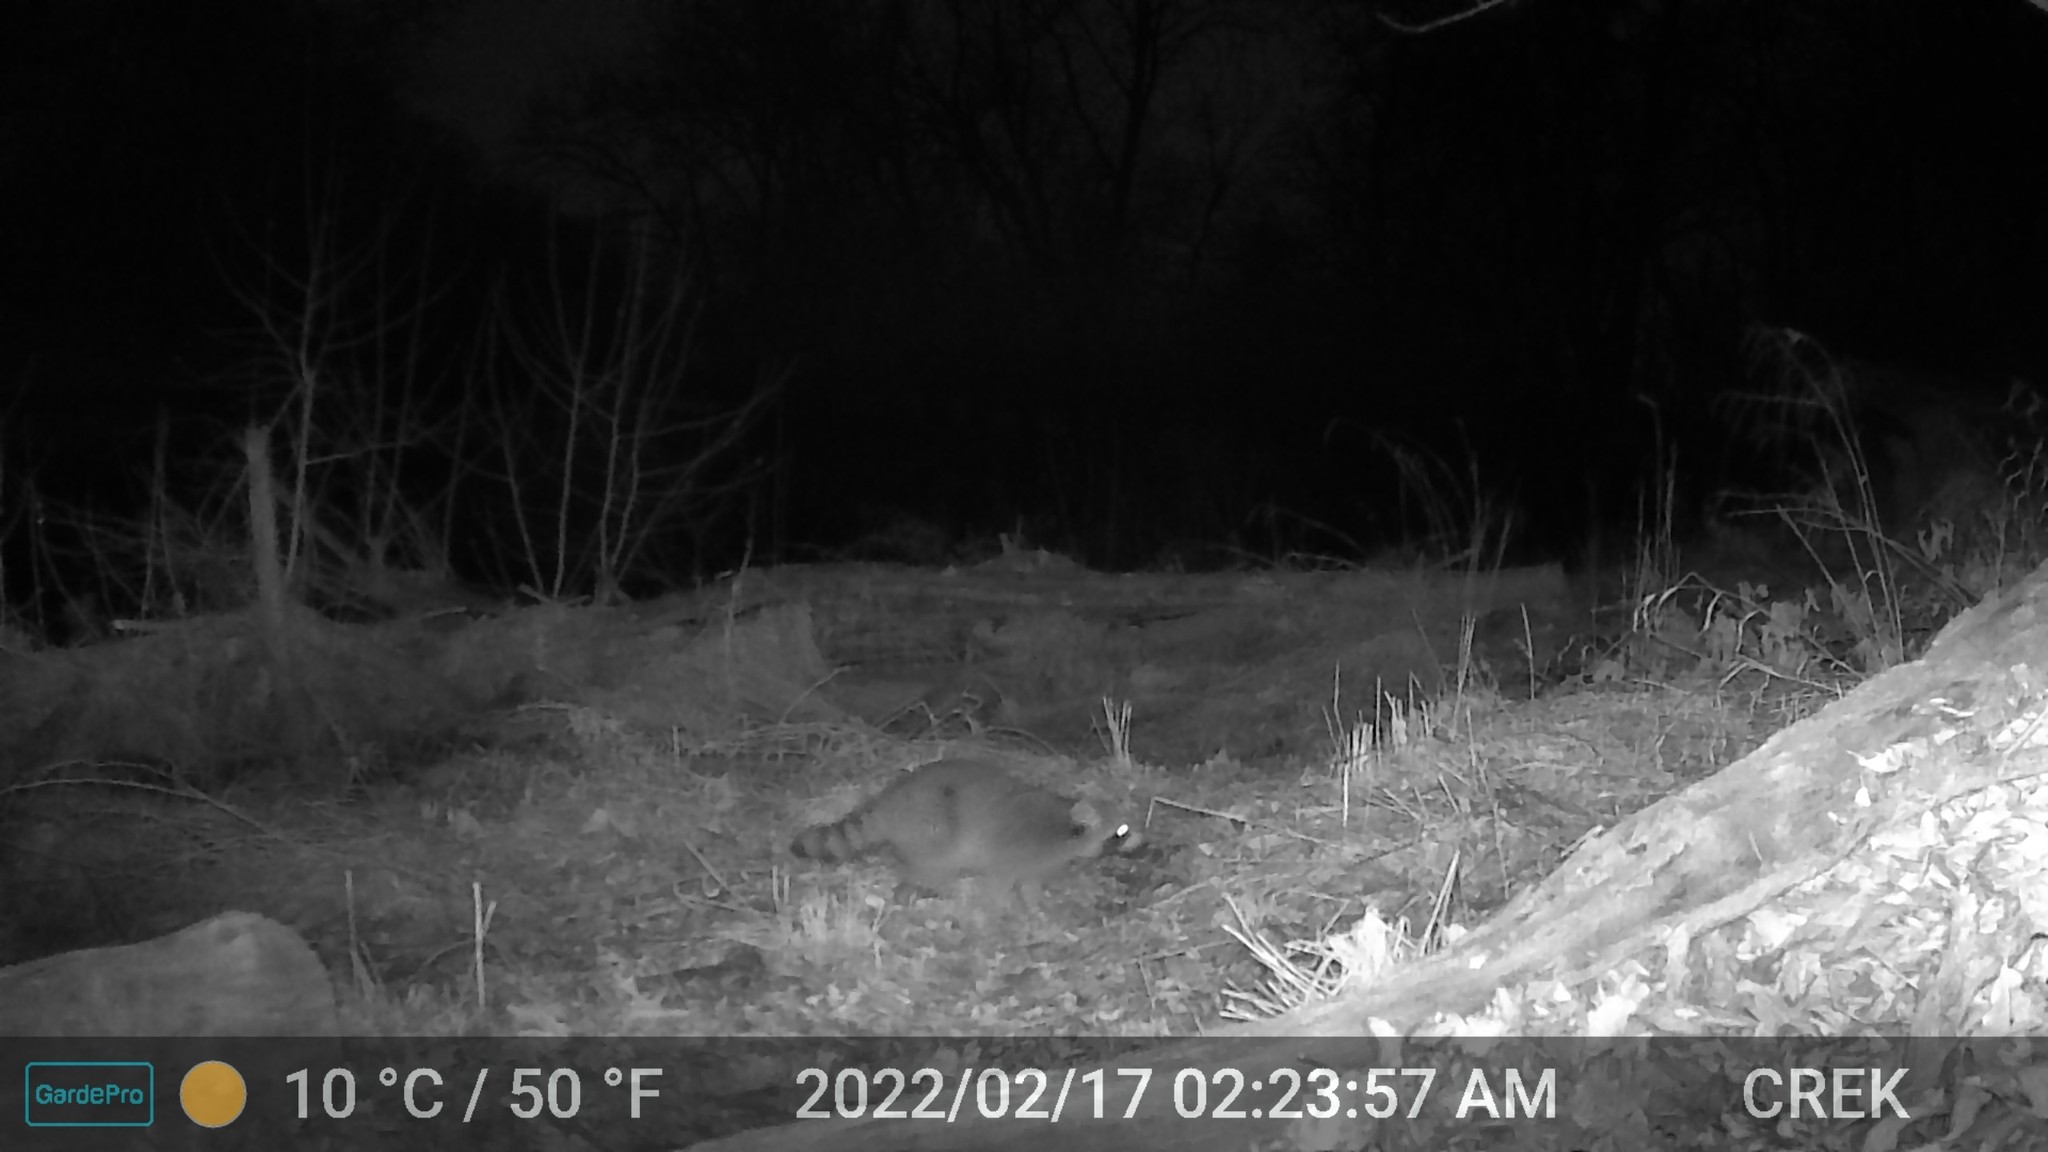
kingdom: Animalia
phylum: Chordata
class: Mammalia
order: Carnivora
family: Procyonidae
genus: Procyon
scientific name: Procyon lotor
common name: Raccoon
